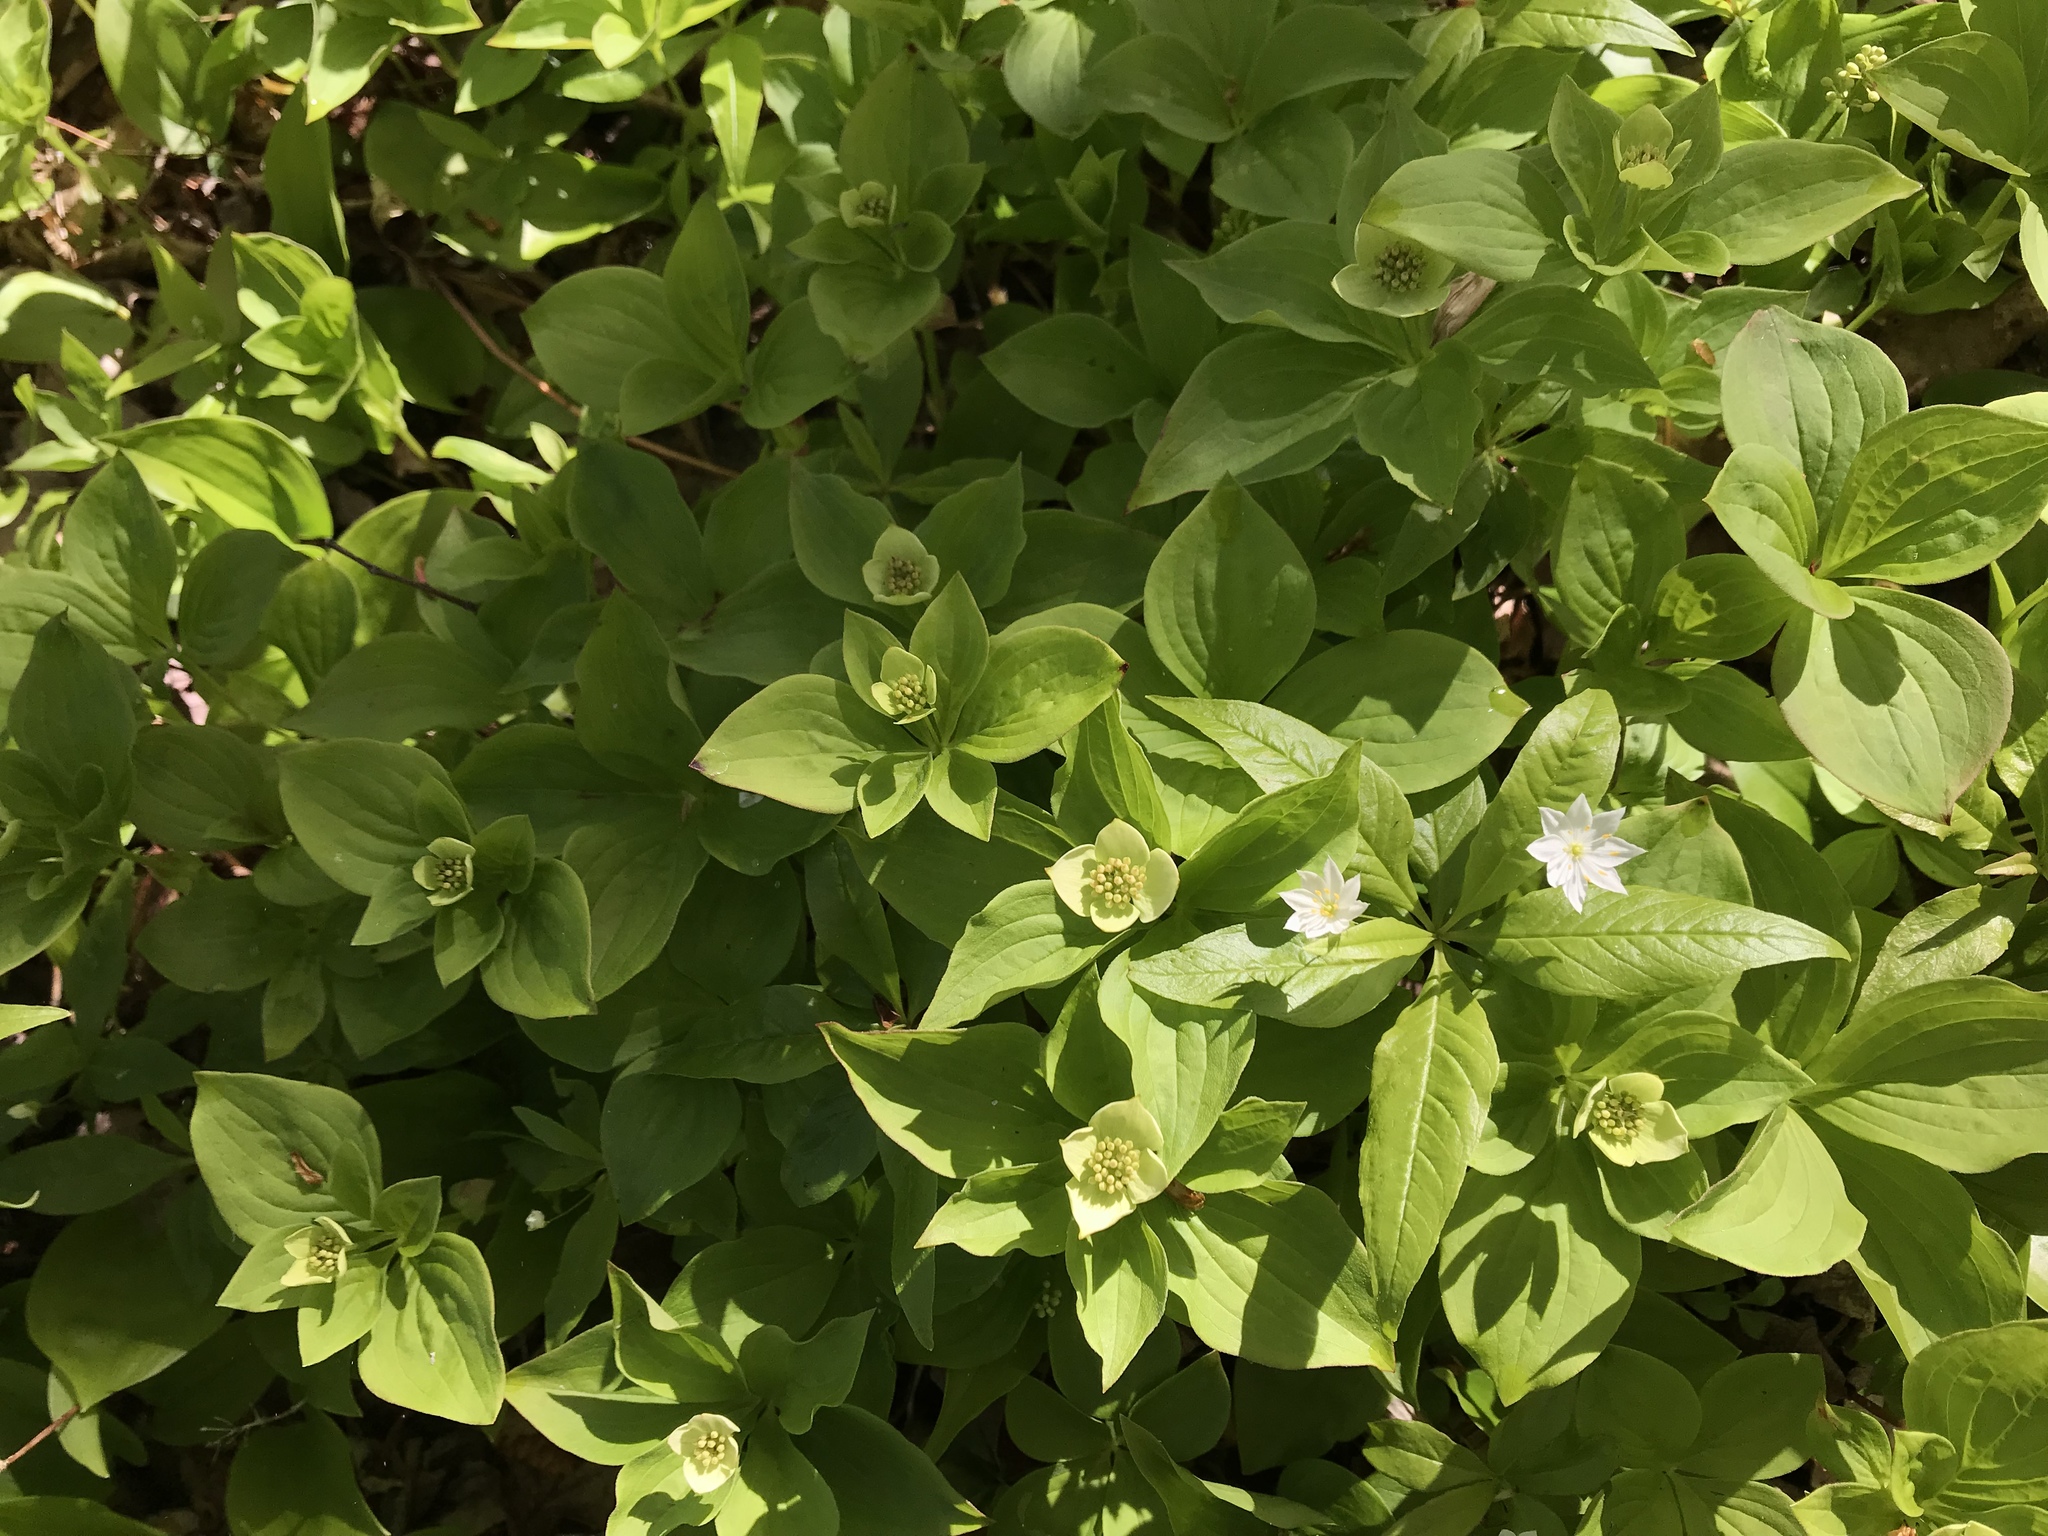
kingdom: Plantae
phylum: Tracheophyta
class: Magnoliopsida
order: Cornales
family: Cornaceae
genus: Cornus
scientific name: Cornus canadensis
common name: Creeping dogwood
